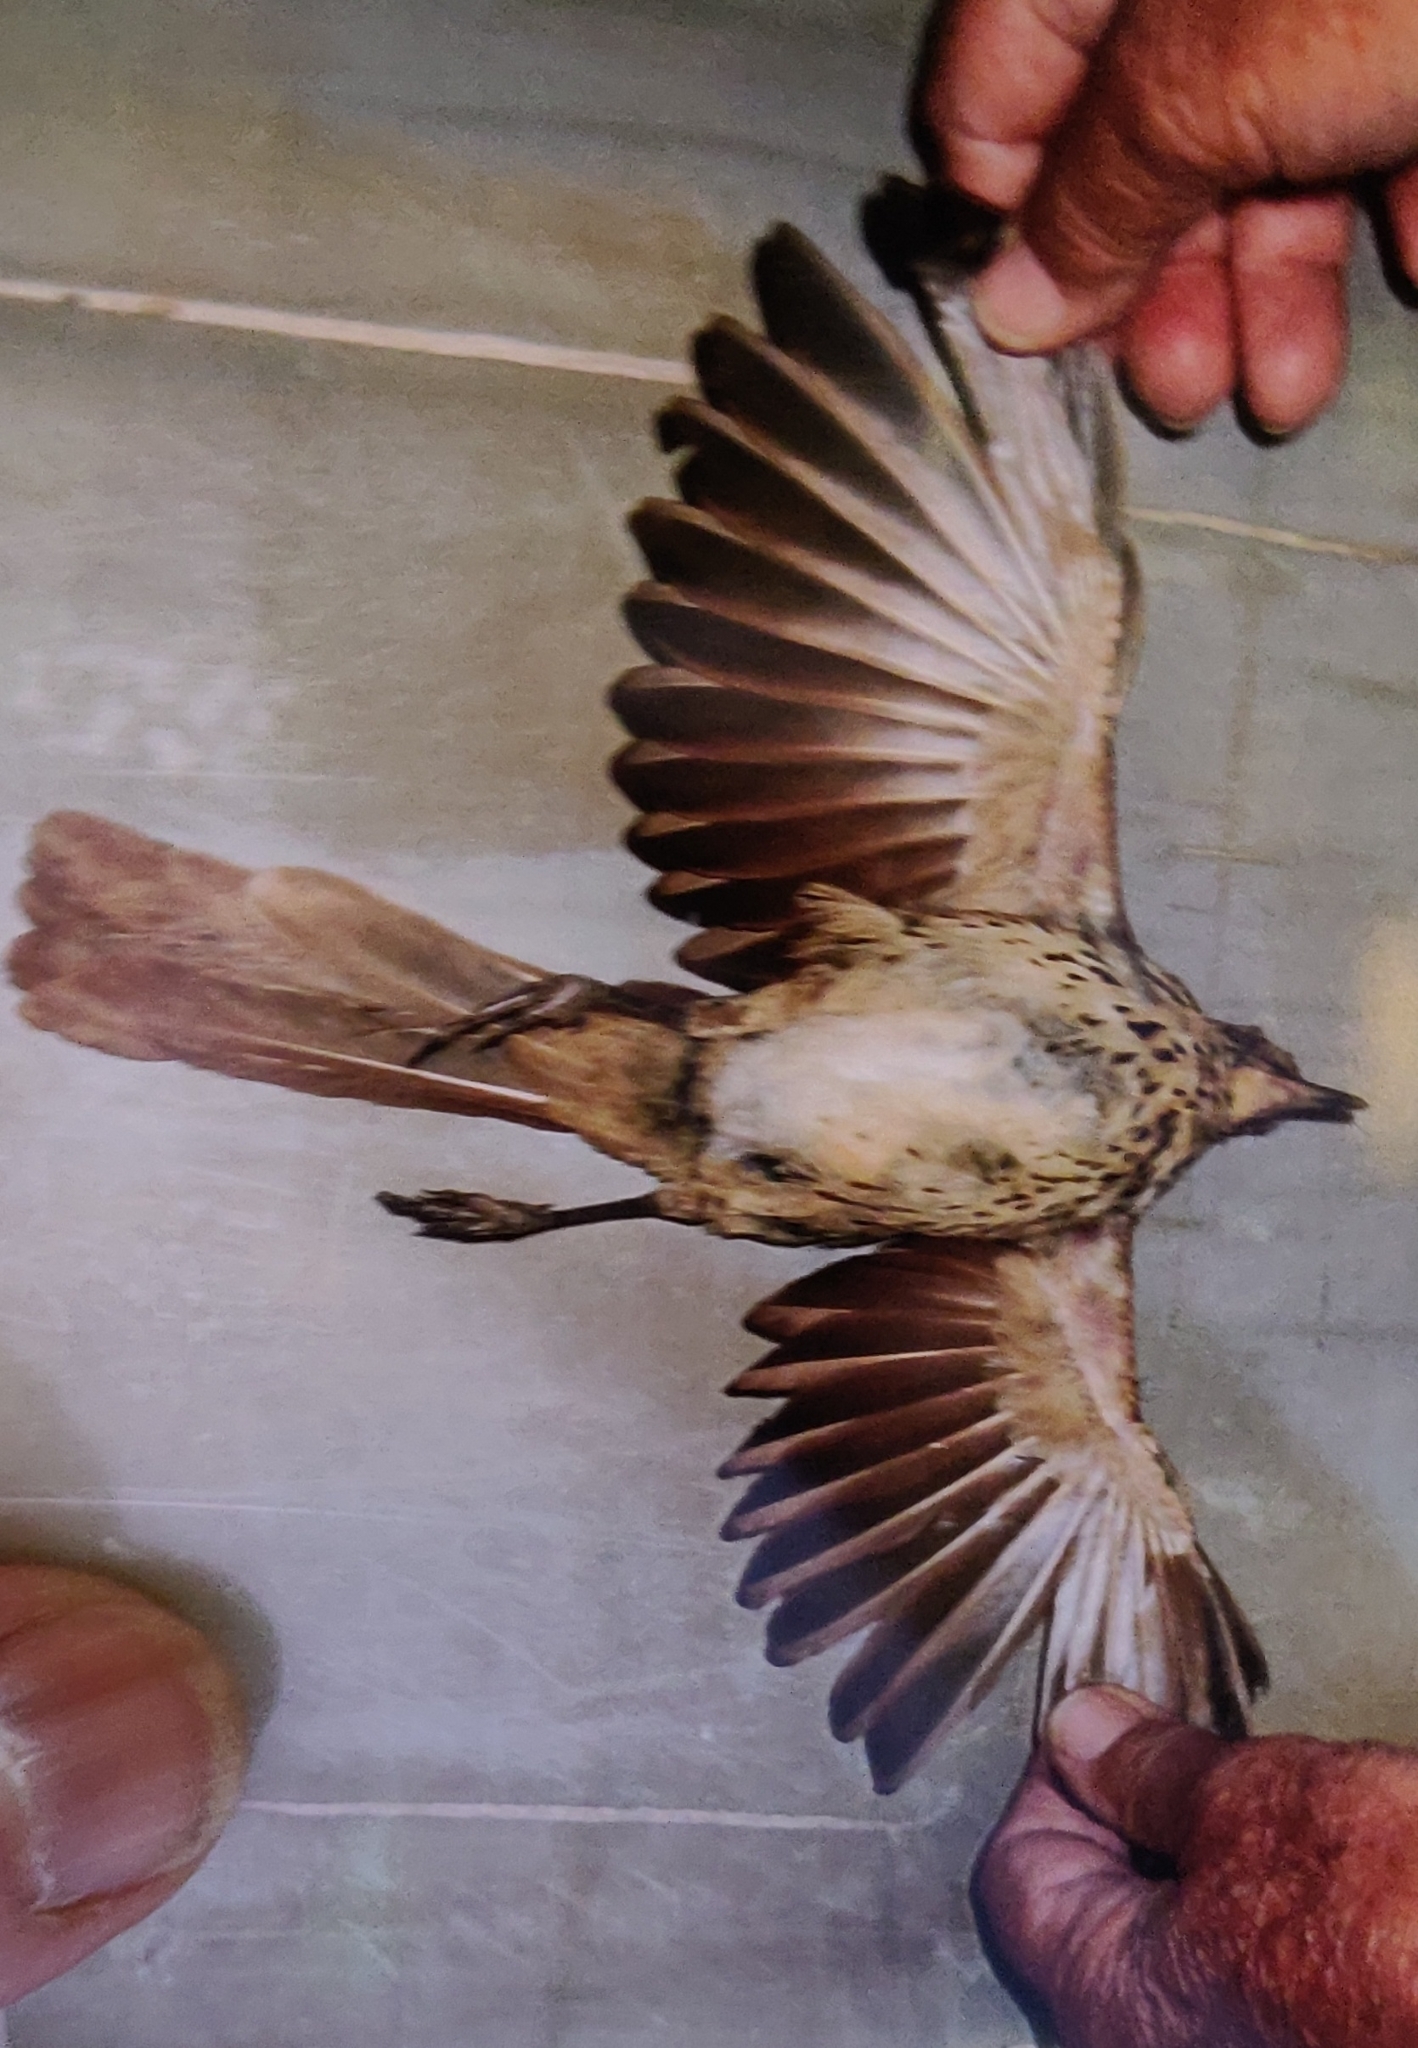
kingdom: Animalia
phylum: Chordata
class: Aves
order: Passeriformes
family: Mimidae
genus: Toxostoma
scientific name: Toxostoma rufum
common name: Brown thrasher
